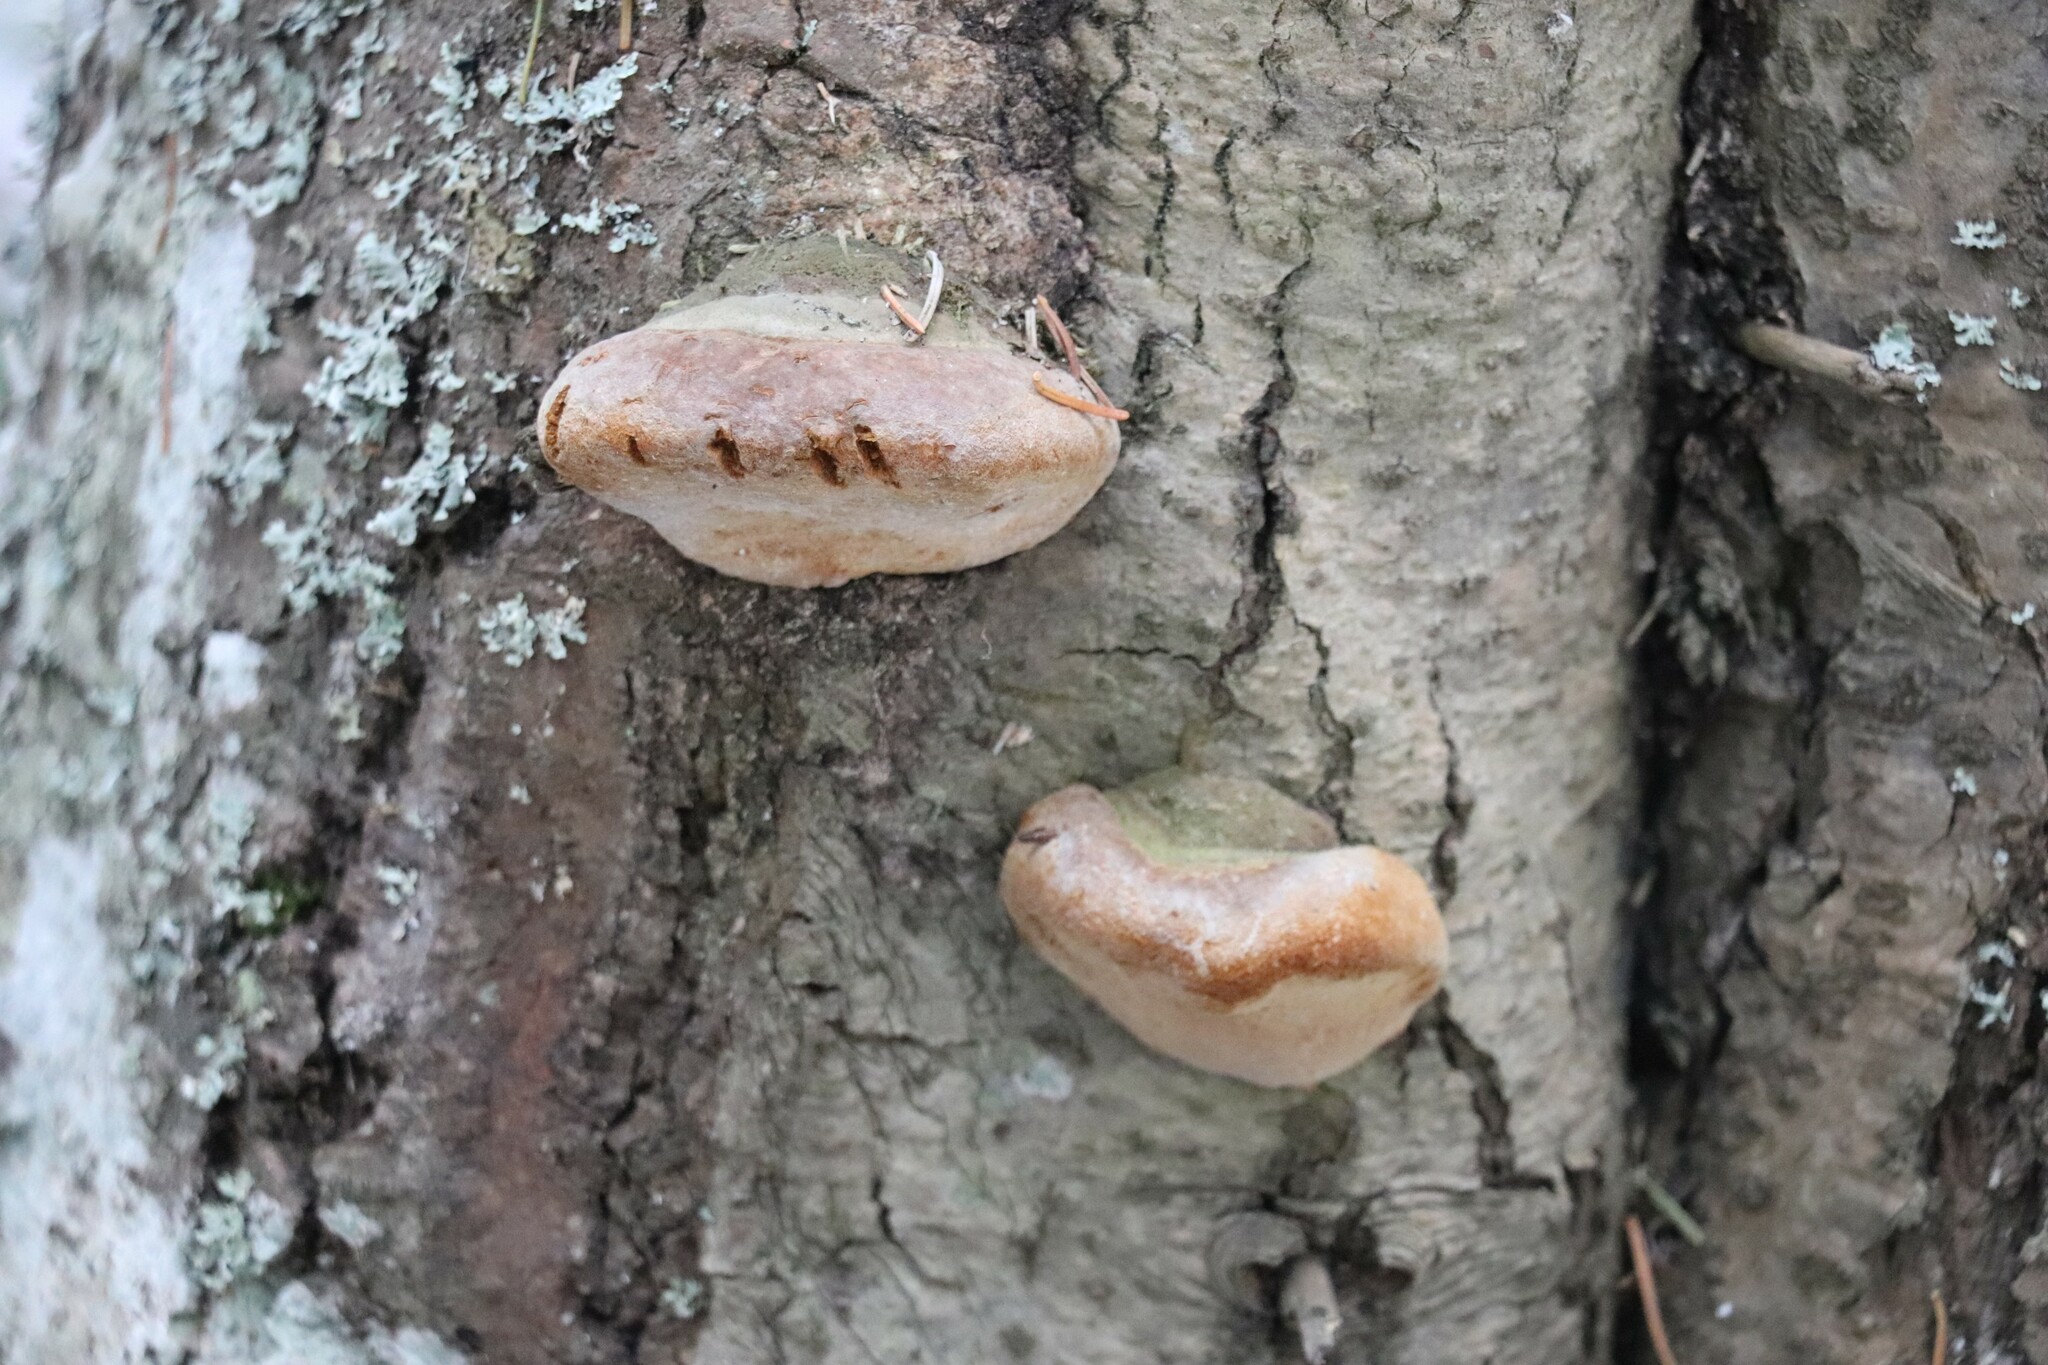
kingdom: Fungi
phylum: Basidiomycota
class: Agaricomycetes
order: Hymenochaetales
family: Hymenochaetaceae
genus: Phellinus
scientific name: Phellinus hartigii
